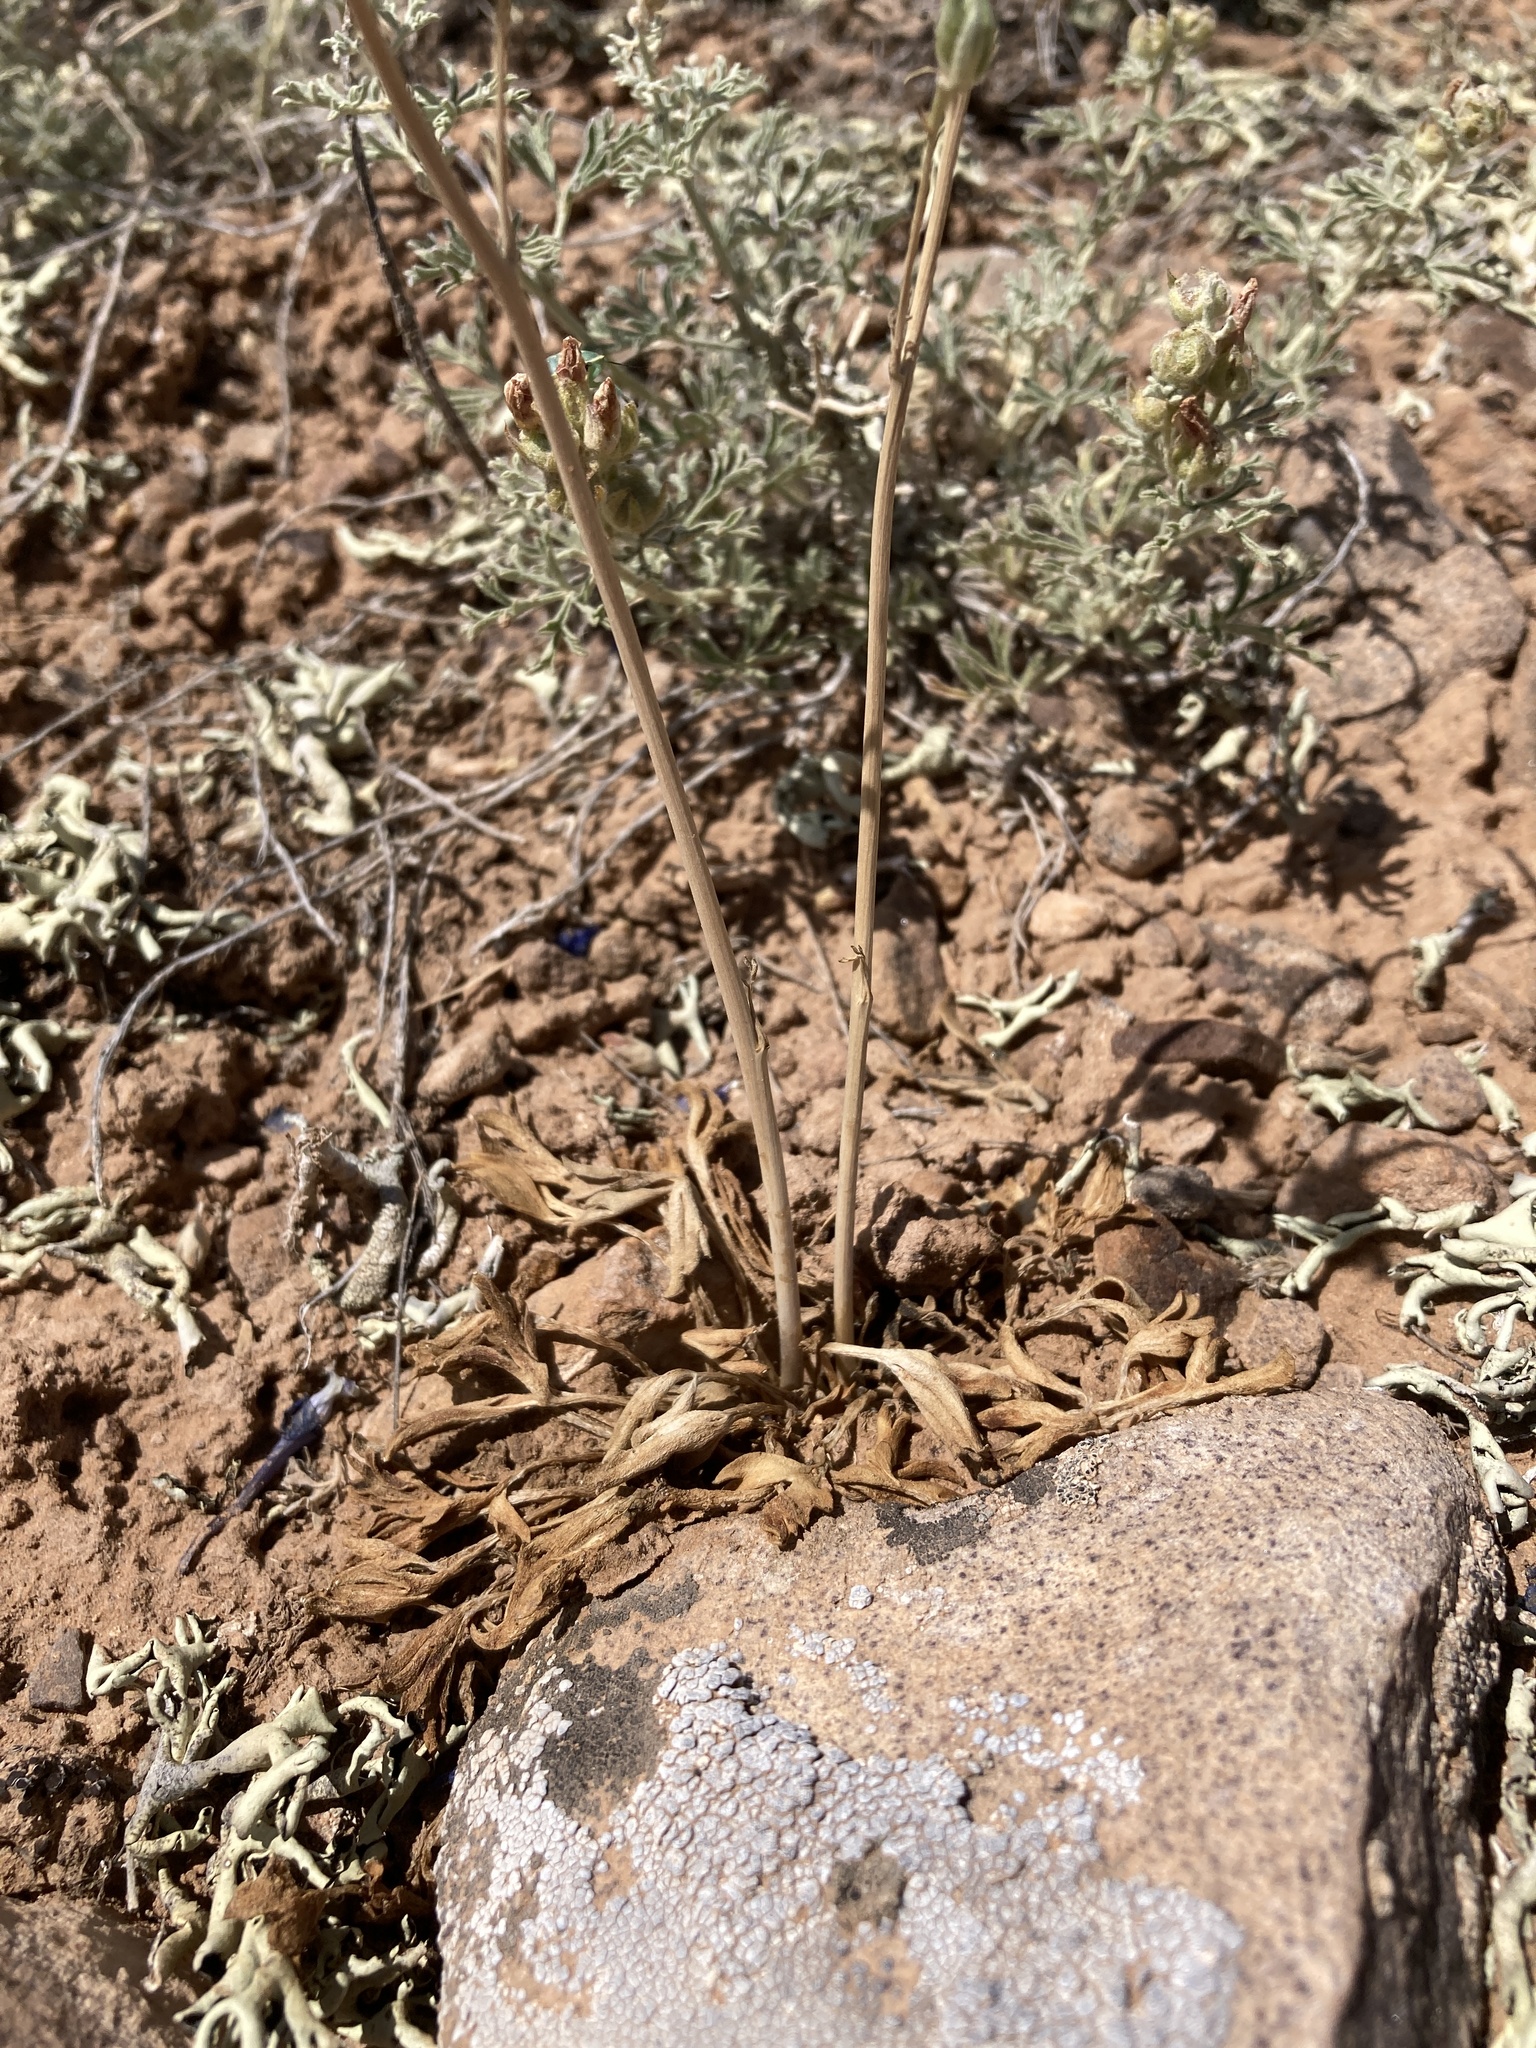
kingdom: Plantae
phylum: Tracheophyta
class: Magnoliopsida
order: Ranunculales
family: Ranunculaceae
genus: Delphinium
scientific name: Delphinium scaposum
